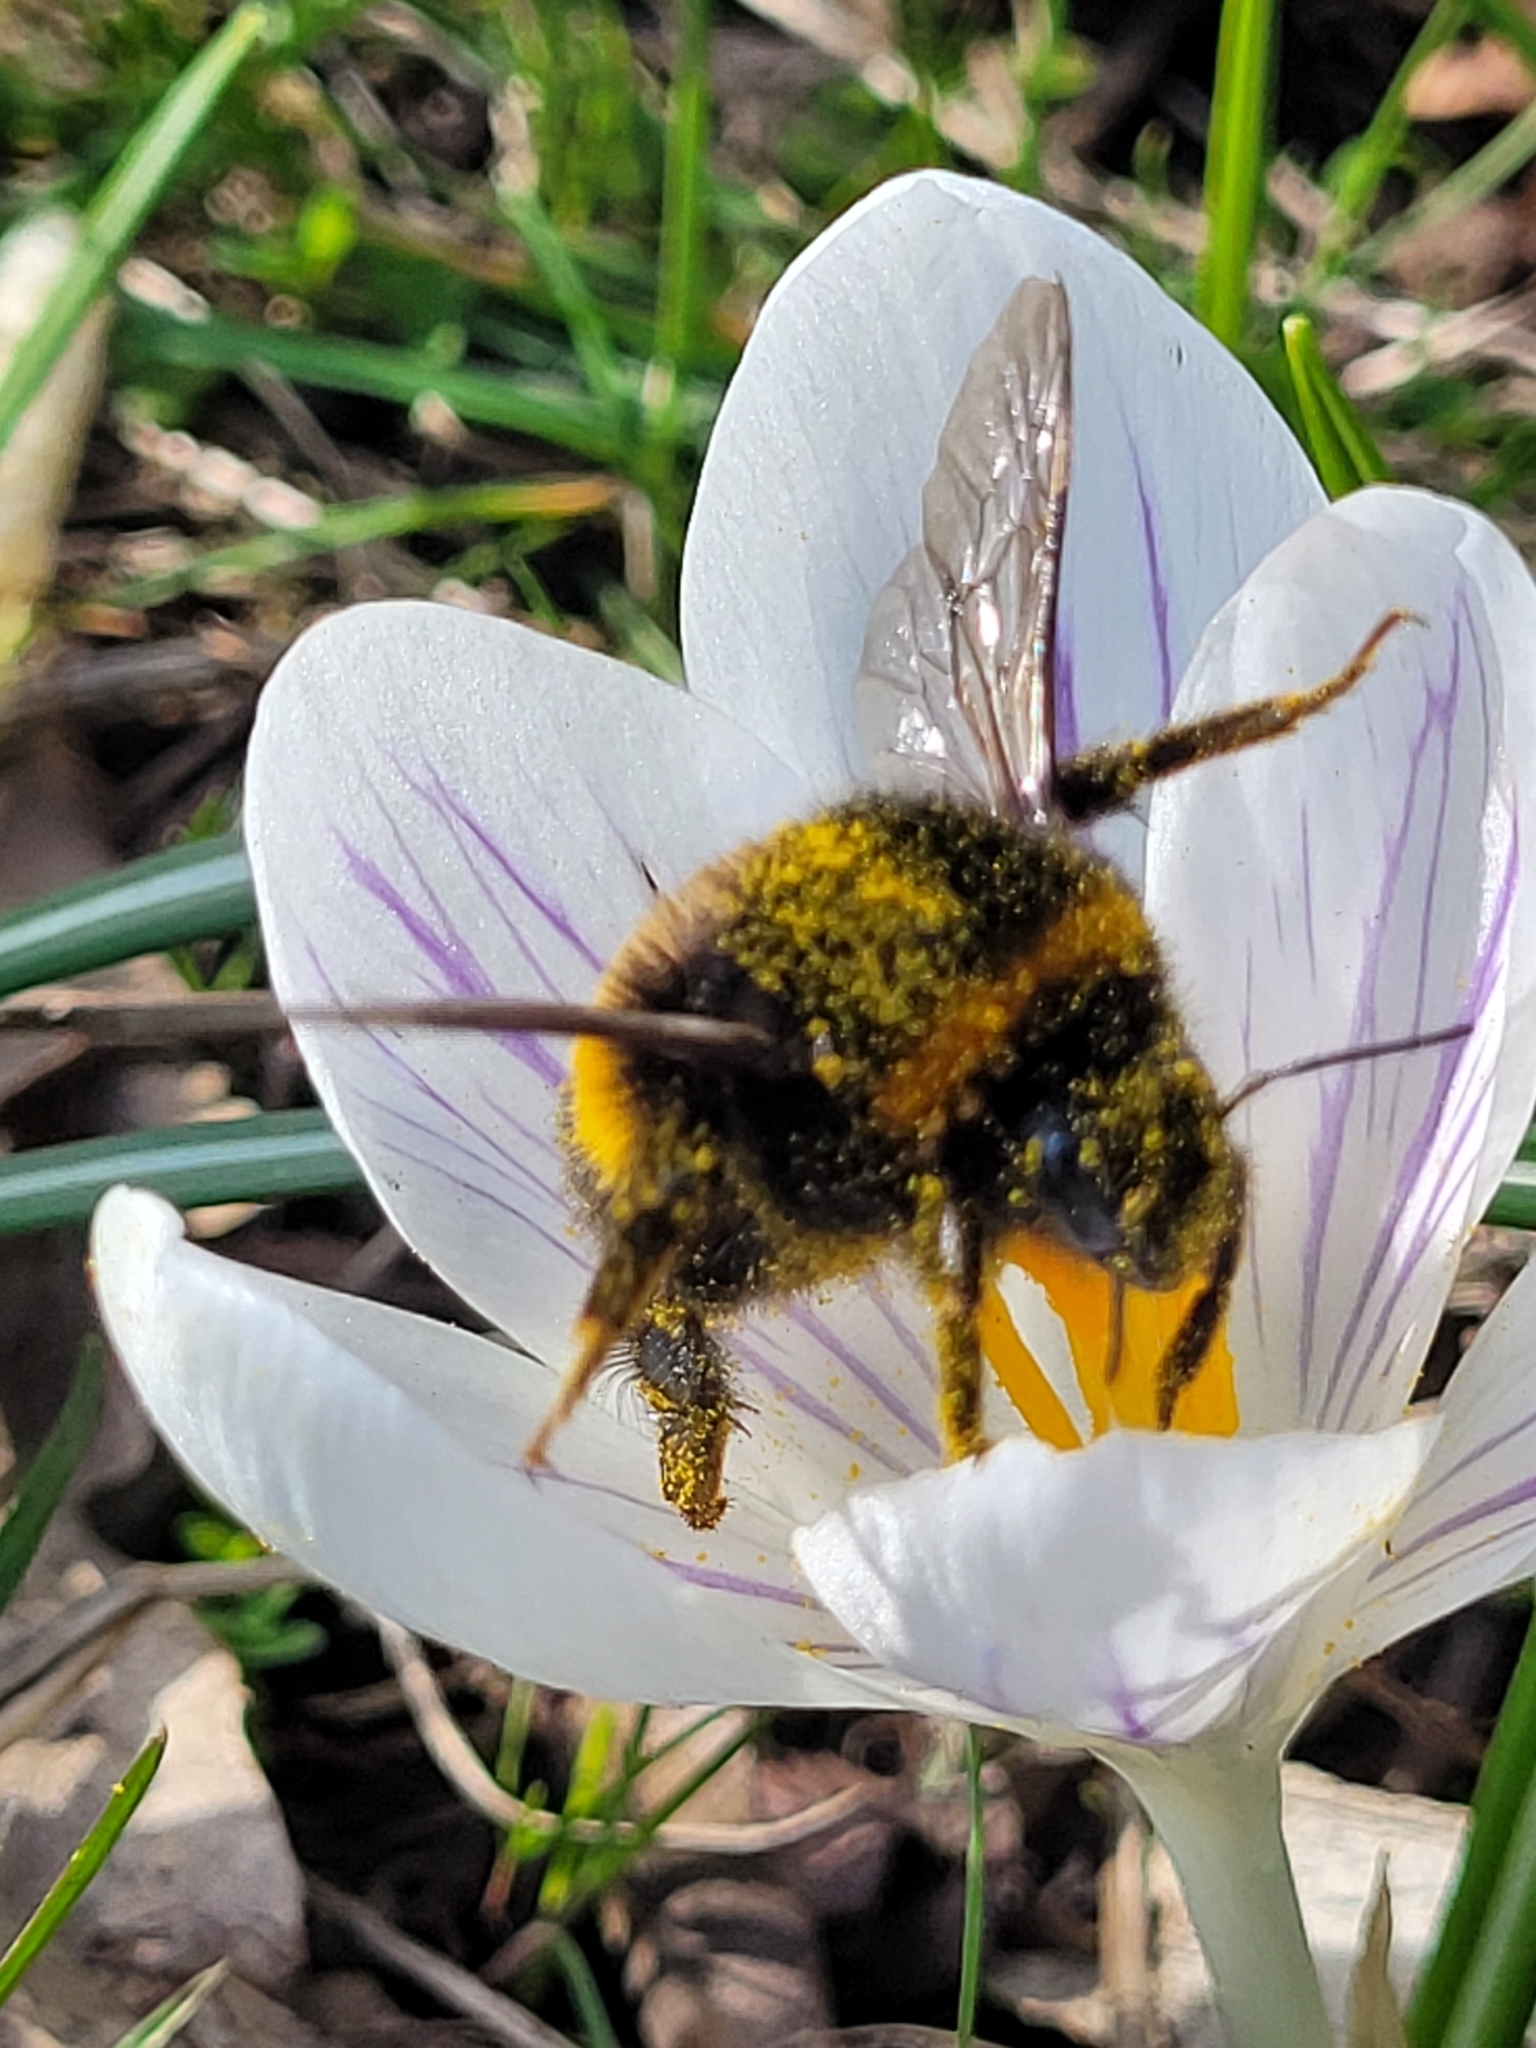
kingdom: Animalia
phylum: Arthropoda
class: Insecta
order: Hymenoptera
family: Apidae
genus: Bombus
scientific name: Bombus terrestris
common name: Buff-tailed bumblebee
